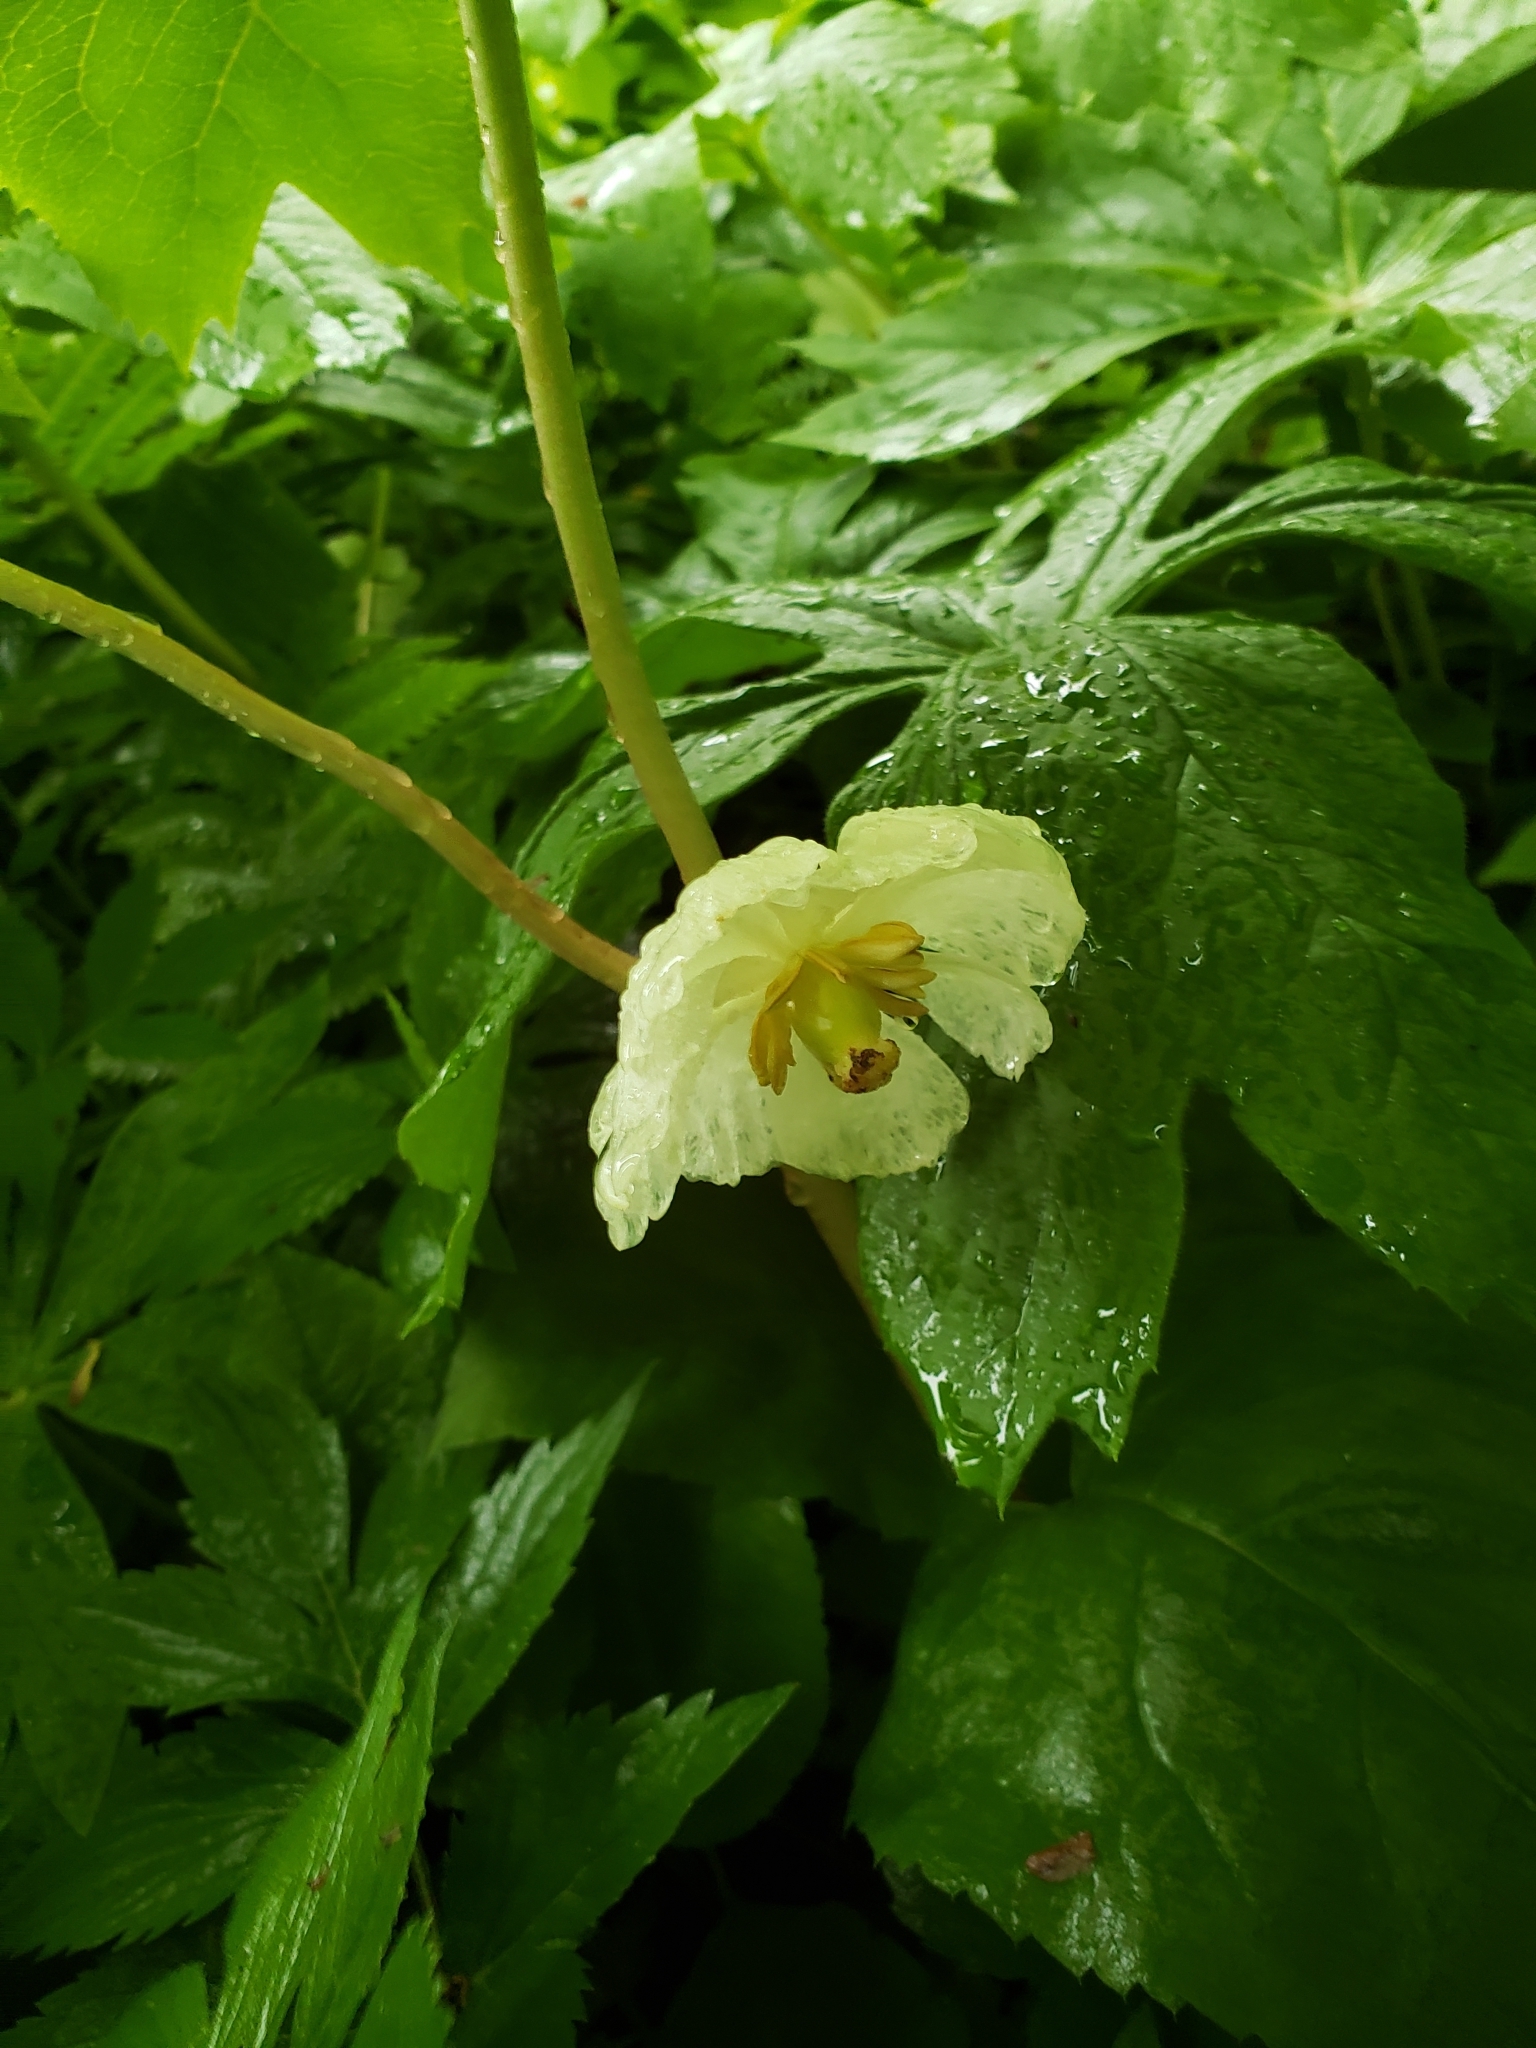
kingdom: Plantae
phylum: Tracheophyta
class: Magnoliopsida
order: Ranunculales
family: Berberidaceae
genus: Podophyllum
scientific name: Podophyllum peltatum
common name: Wild mandrake
